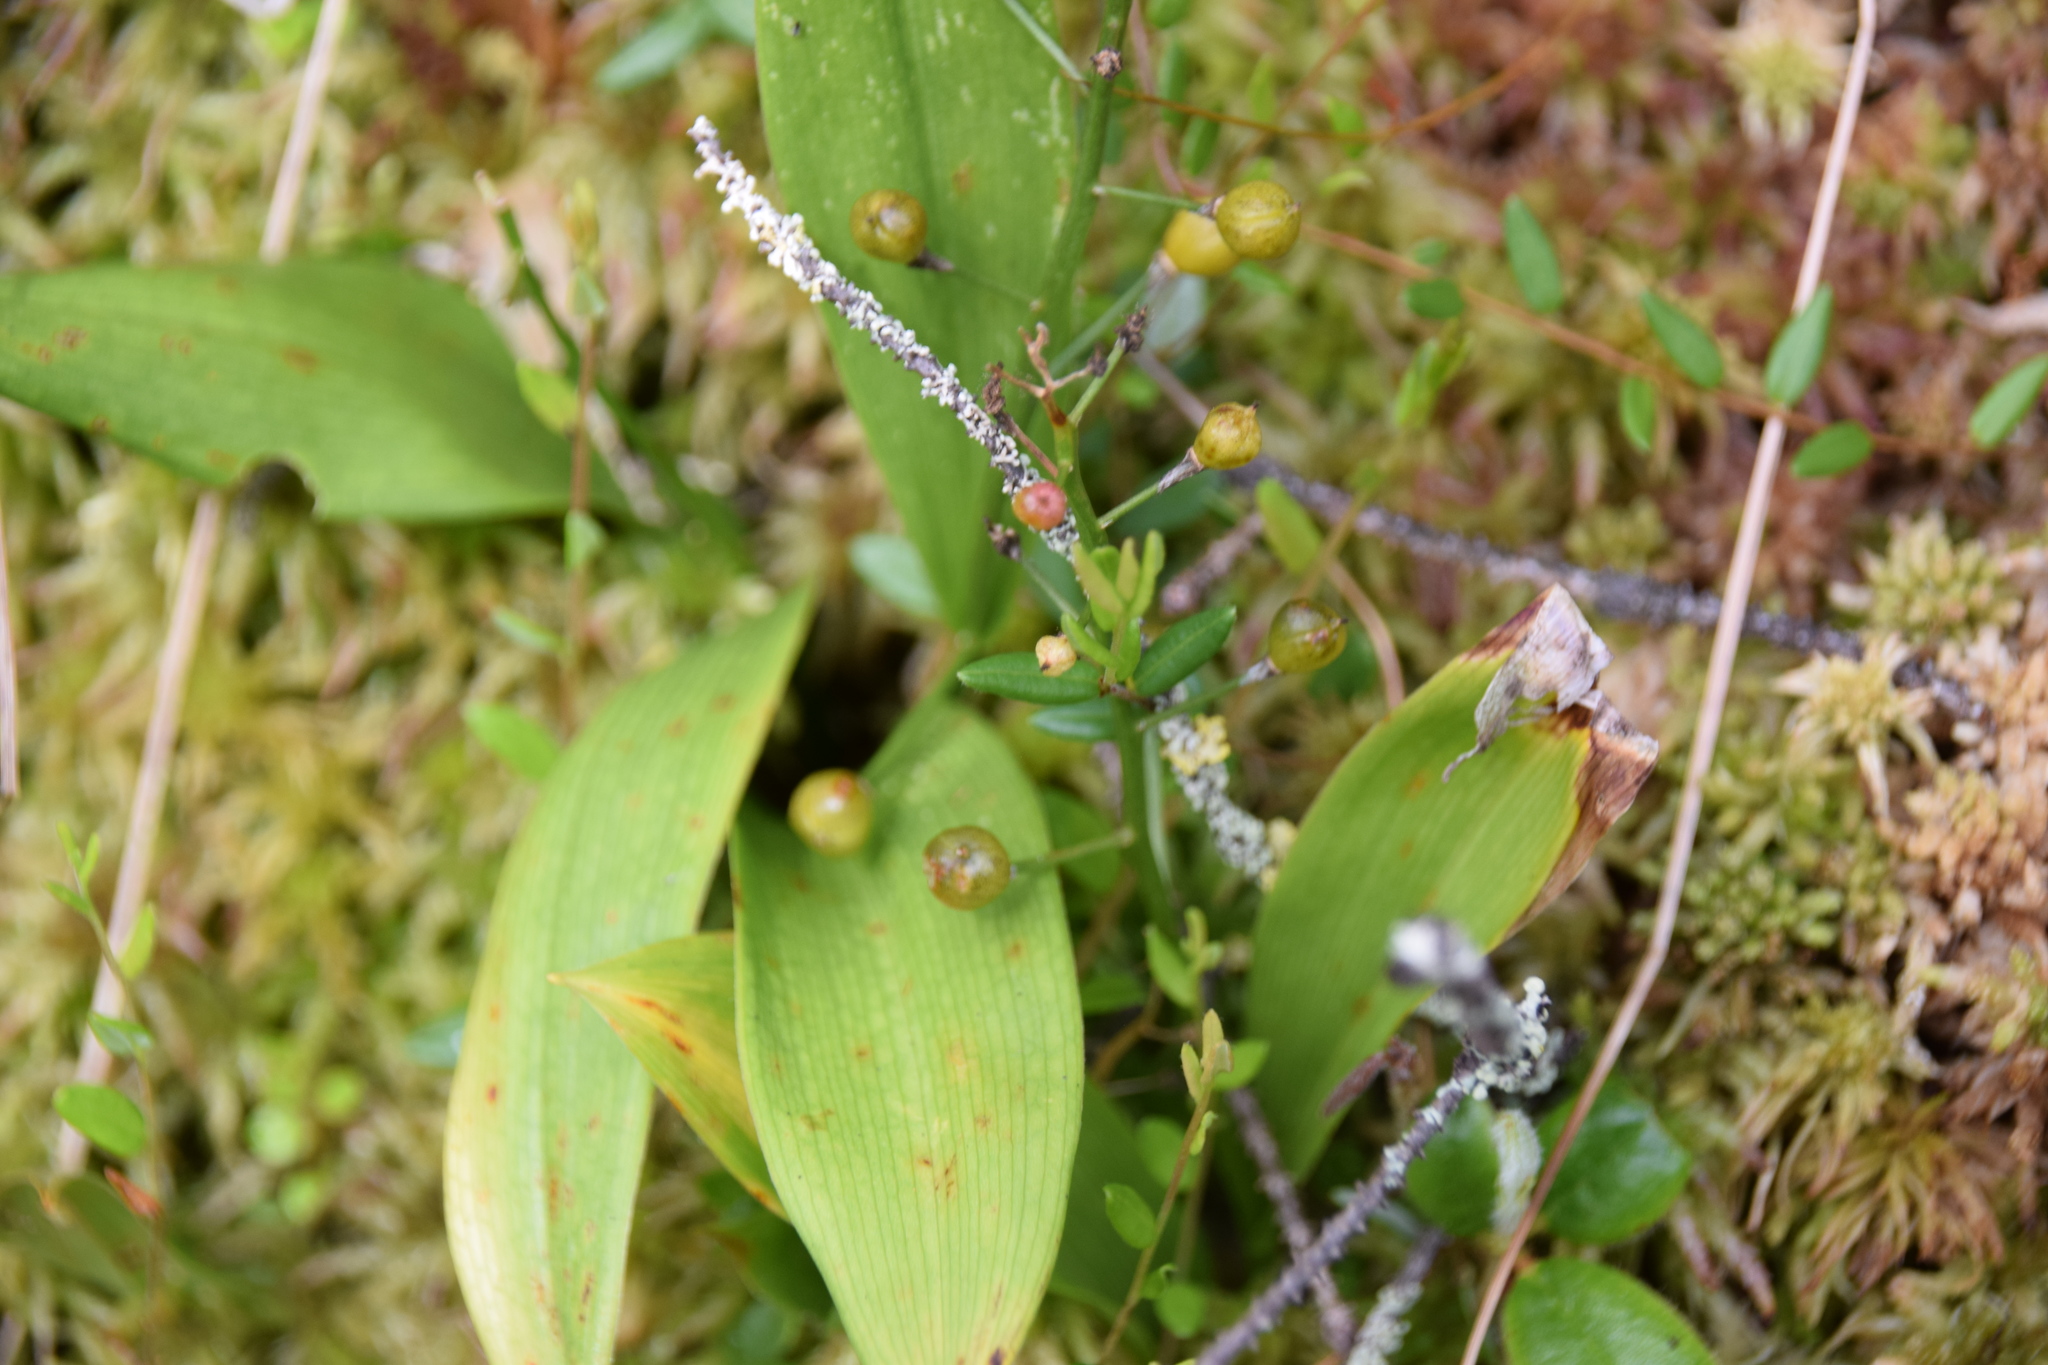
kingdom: Plantae
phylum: Tracheophyta
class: Liliopsida
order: Asparagales
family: Asparagaceae
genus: Maianthemum
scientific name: Maianthemum trifolium
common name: Swamp false solomon's seal
